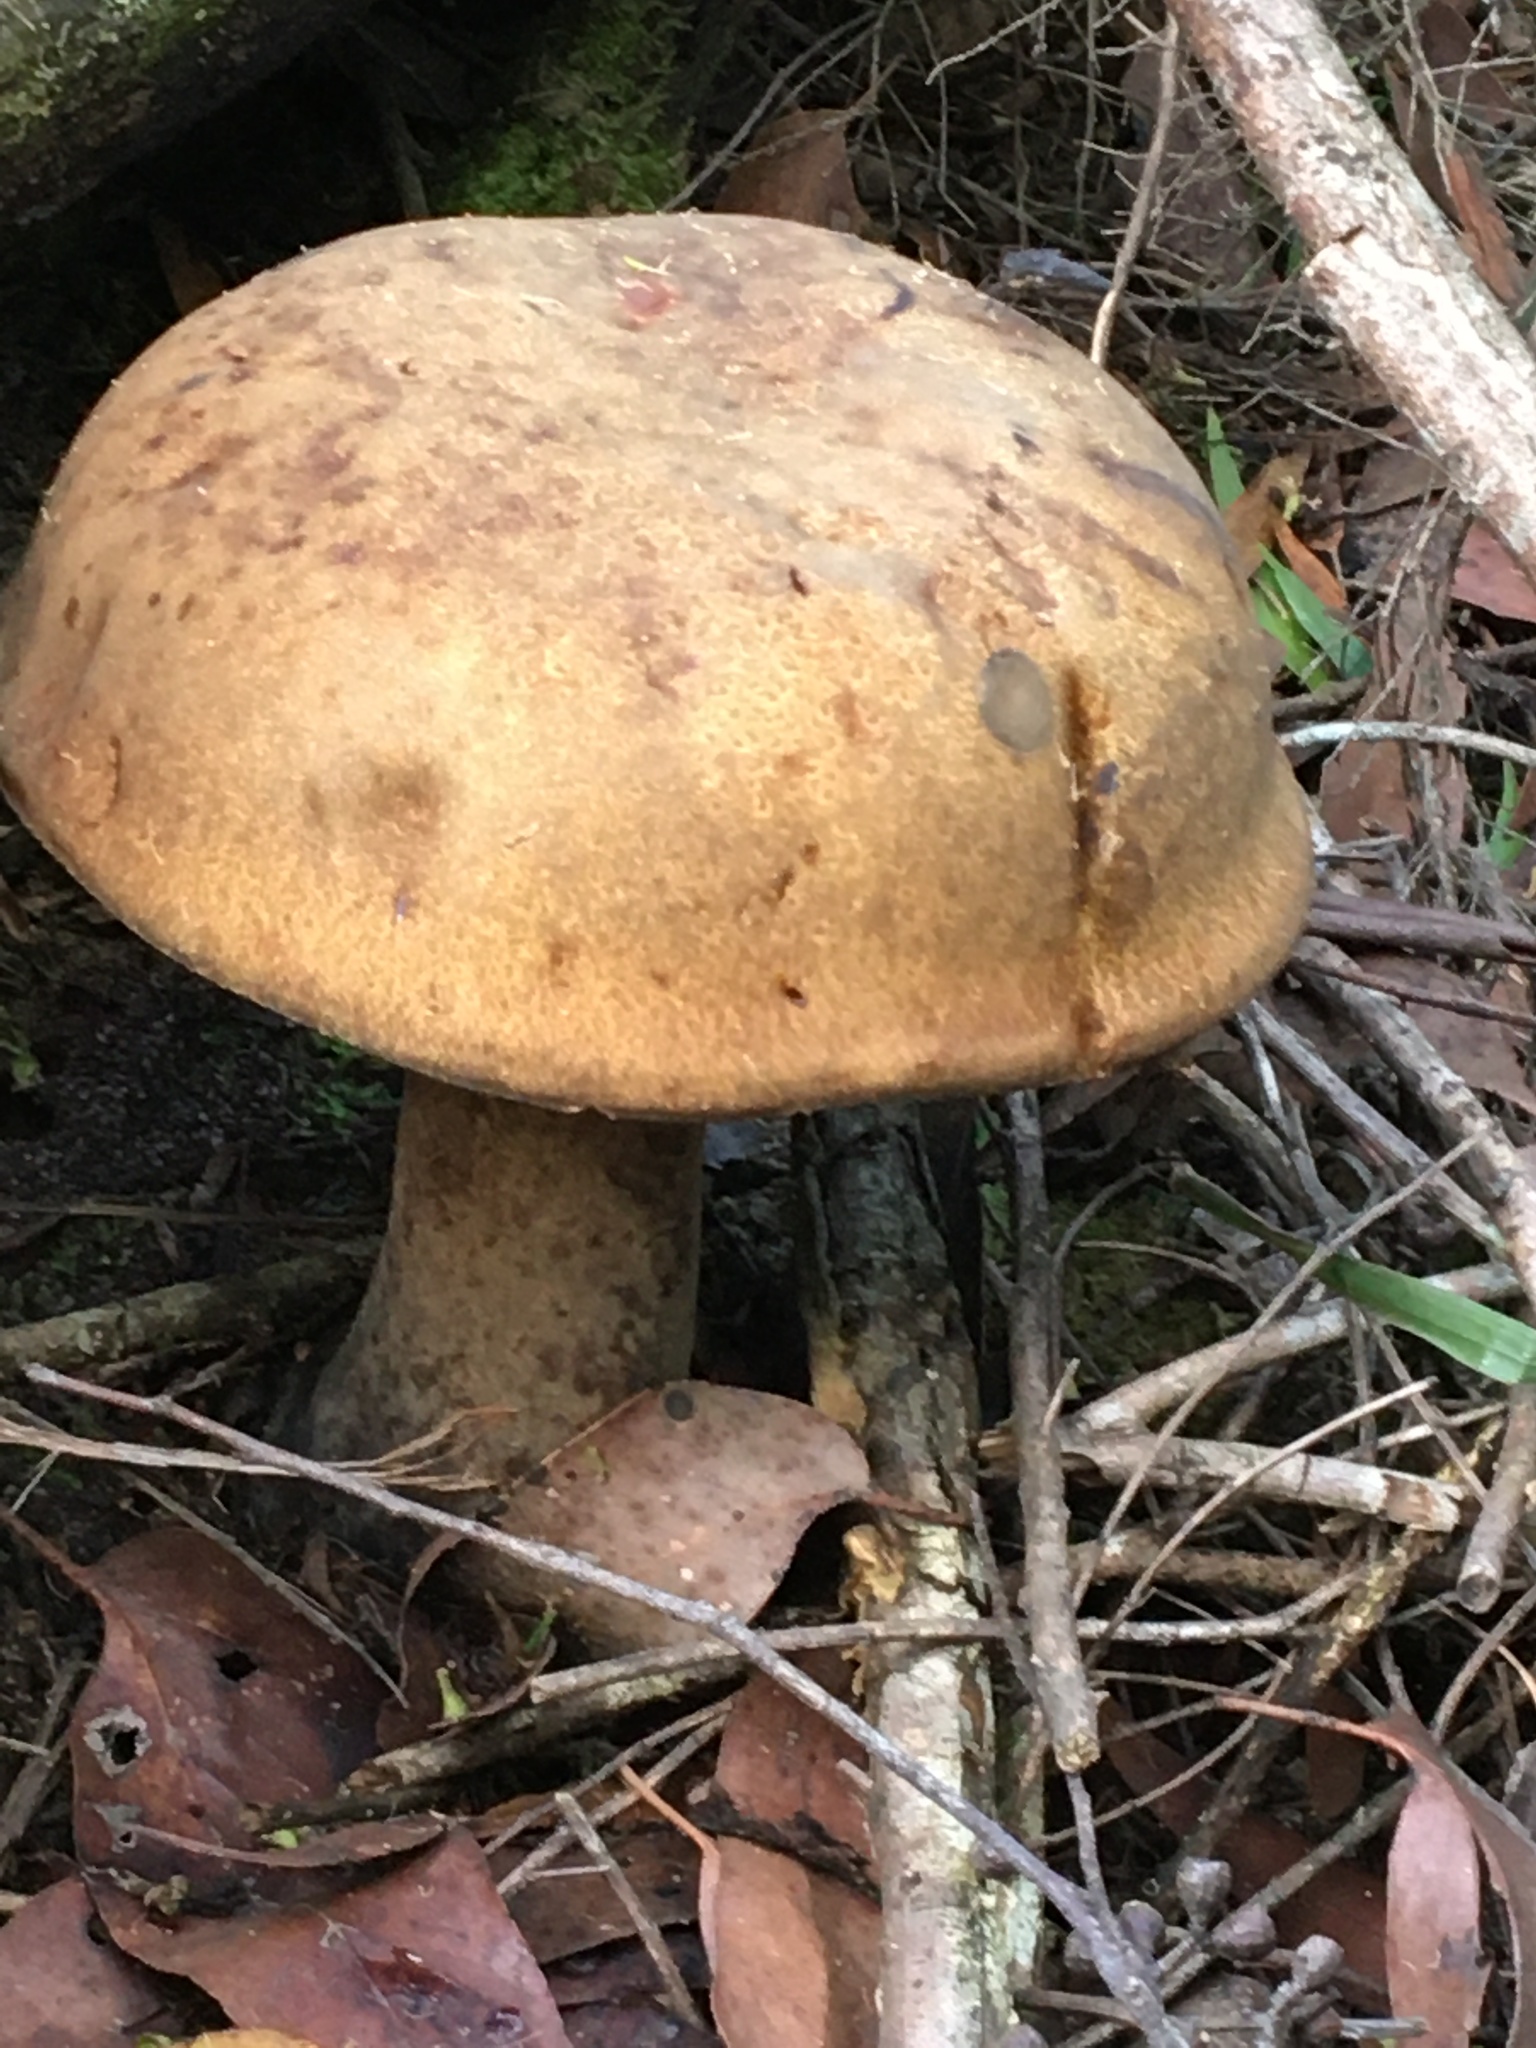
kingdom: Fungi
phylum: Basidiomycota
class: Agaricomycetes
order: Boletales
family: Boletinellaceae
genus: Phlebopus
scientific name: Phlebopus marginatus
